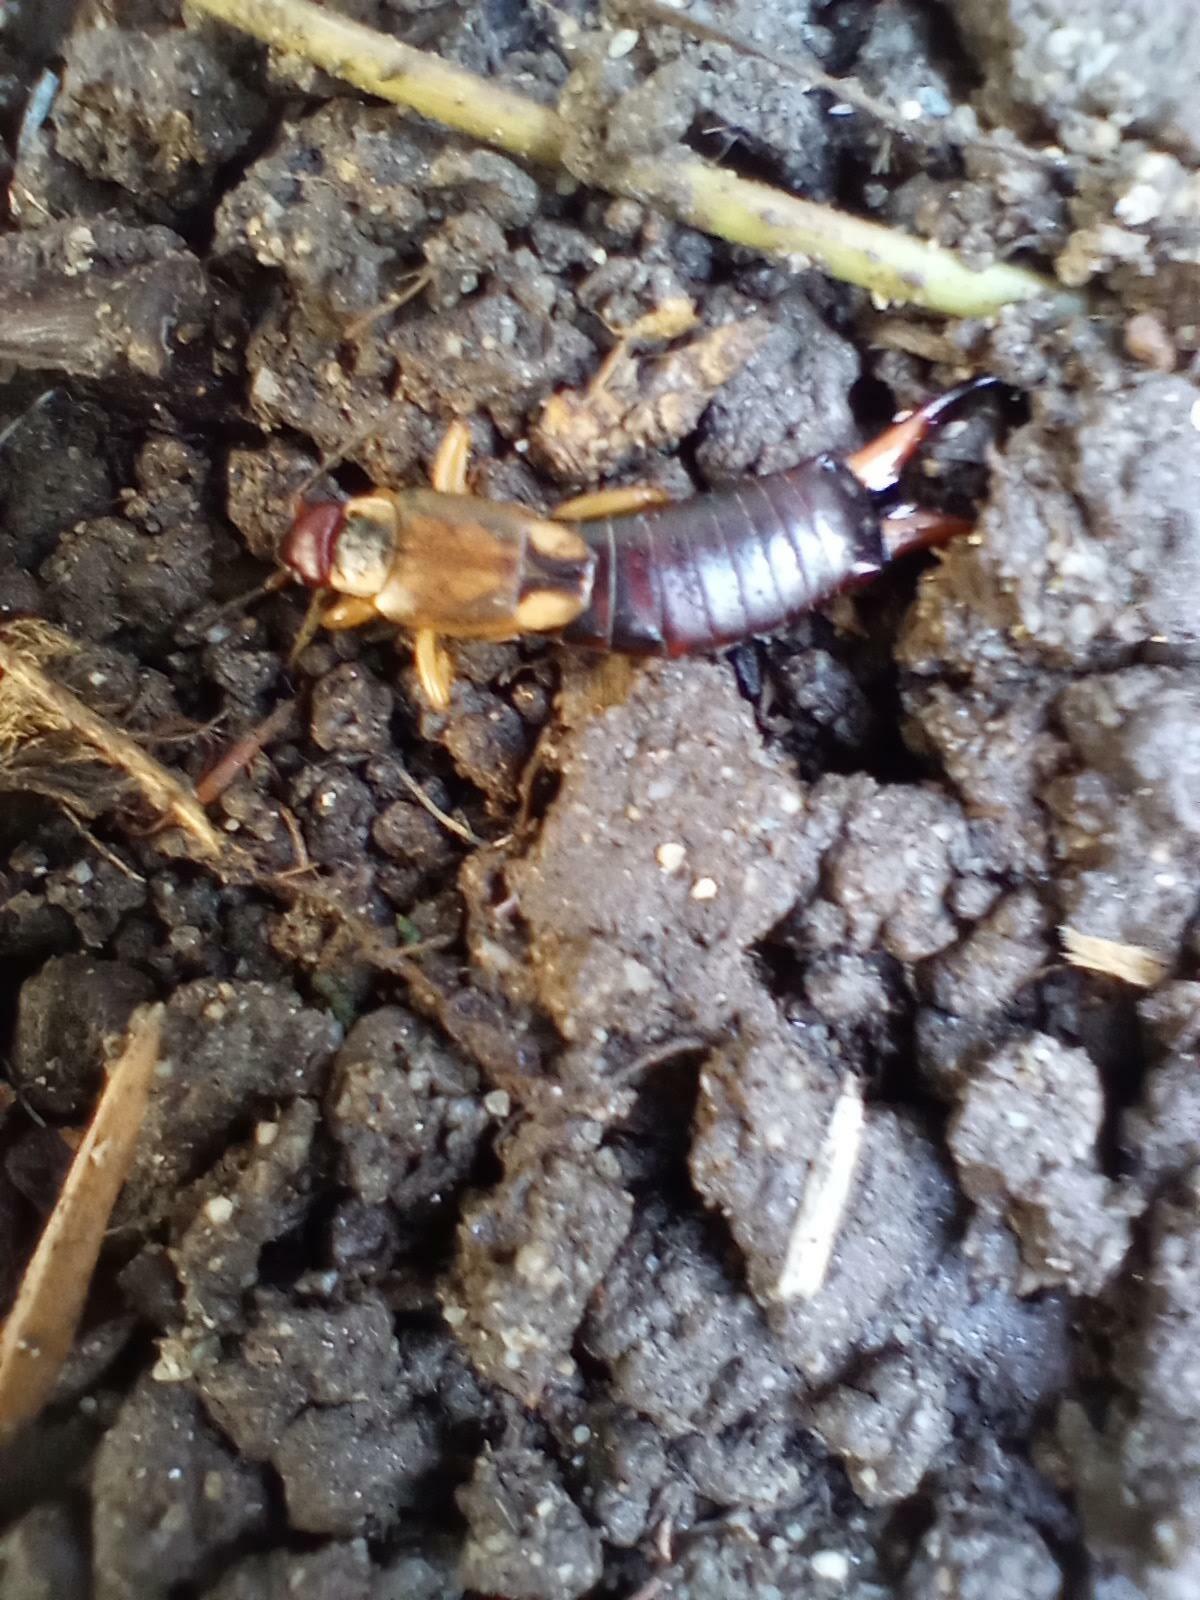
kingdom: Animalia
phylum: Arthropoda
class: Insecta
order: Dermaptera
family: Forficulidae
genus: Forficula
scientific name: Forficula dentata
